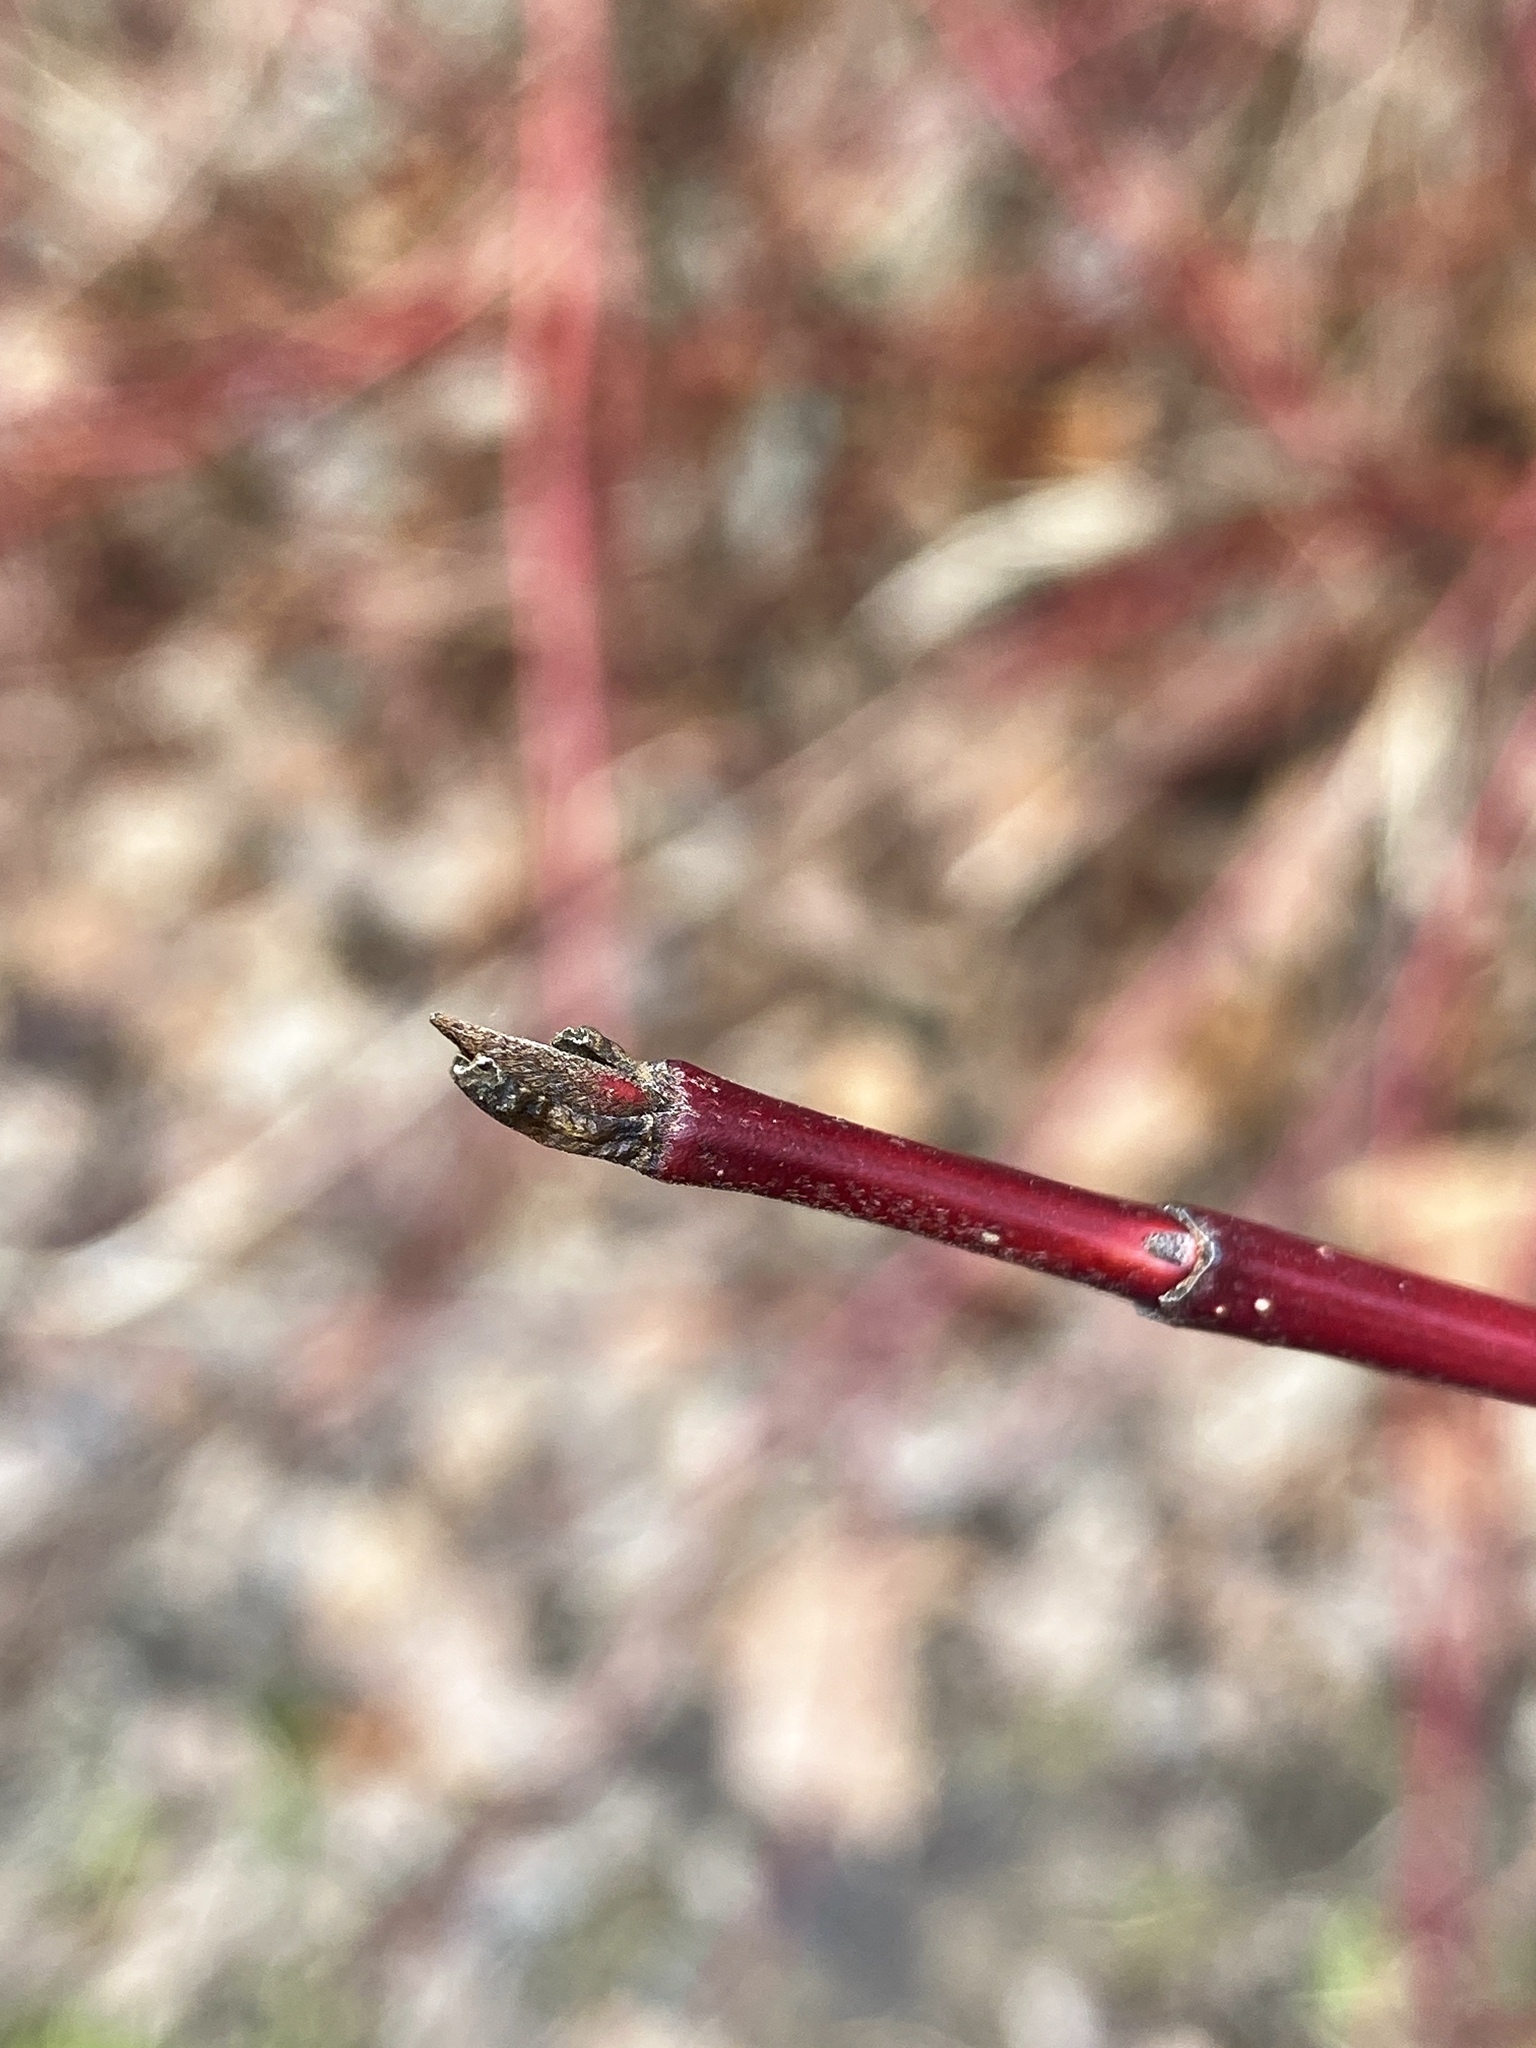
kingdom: Plantae
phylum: Tracheophyta
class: Magnoliopsida
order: Cornales
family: Cornaceae
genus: Cornus
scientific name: Cornus sericea
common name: Red-osier dogwood
